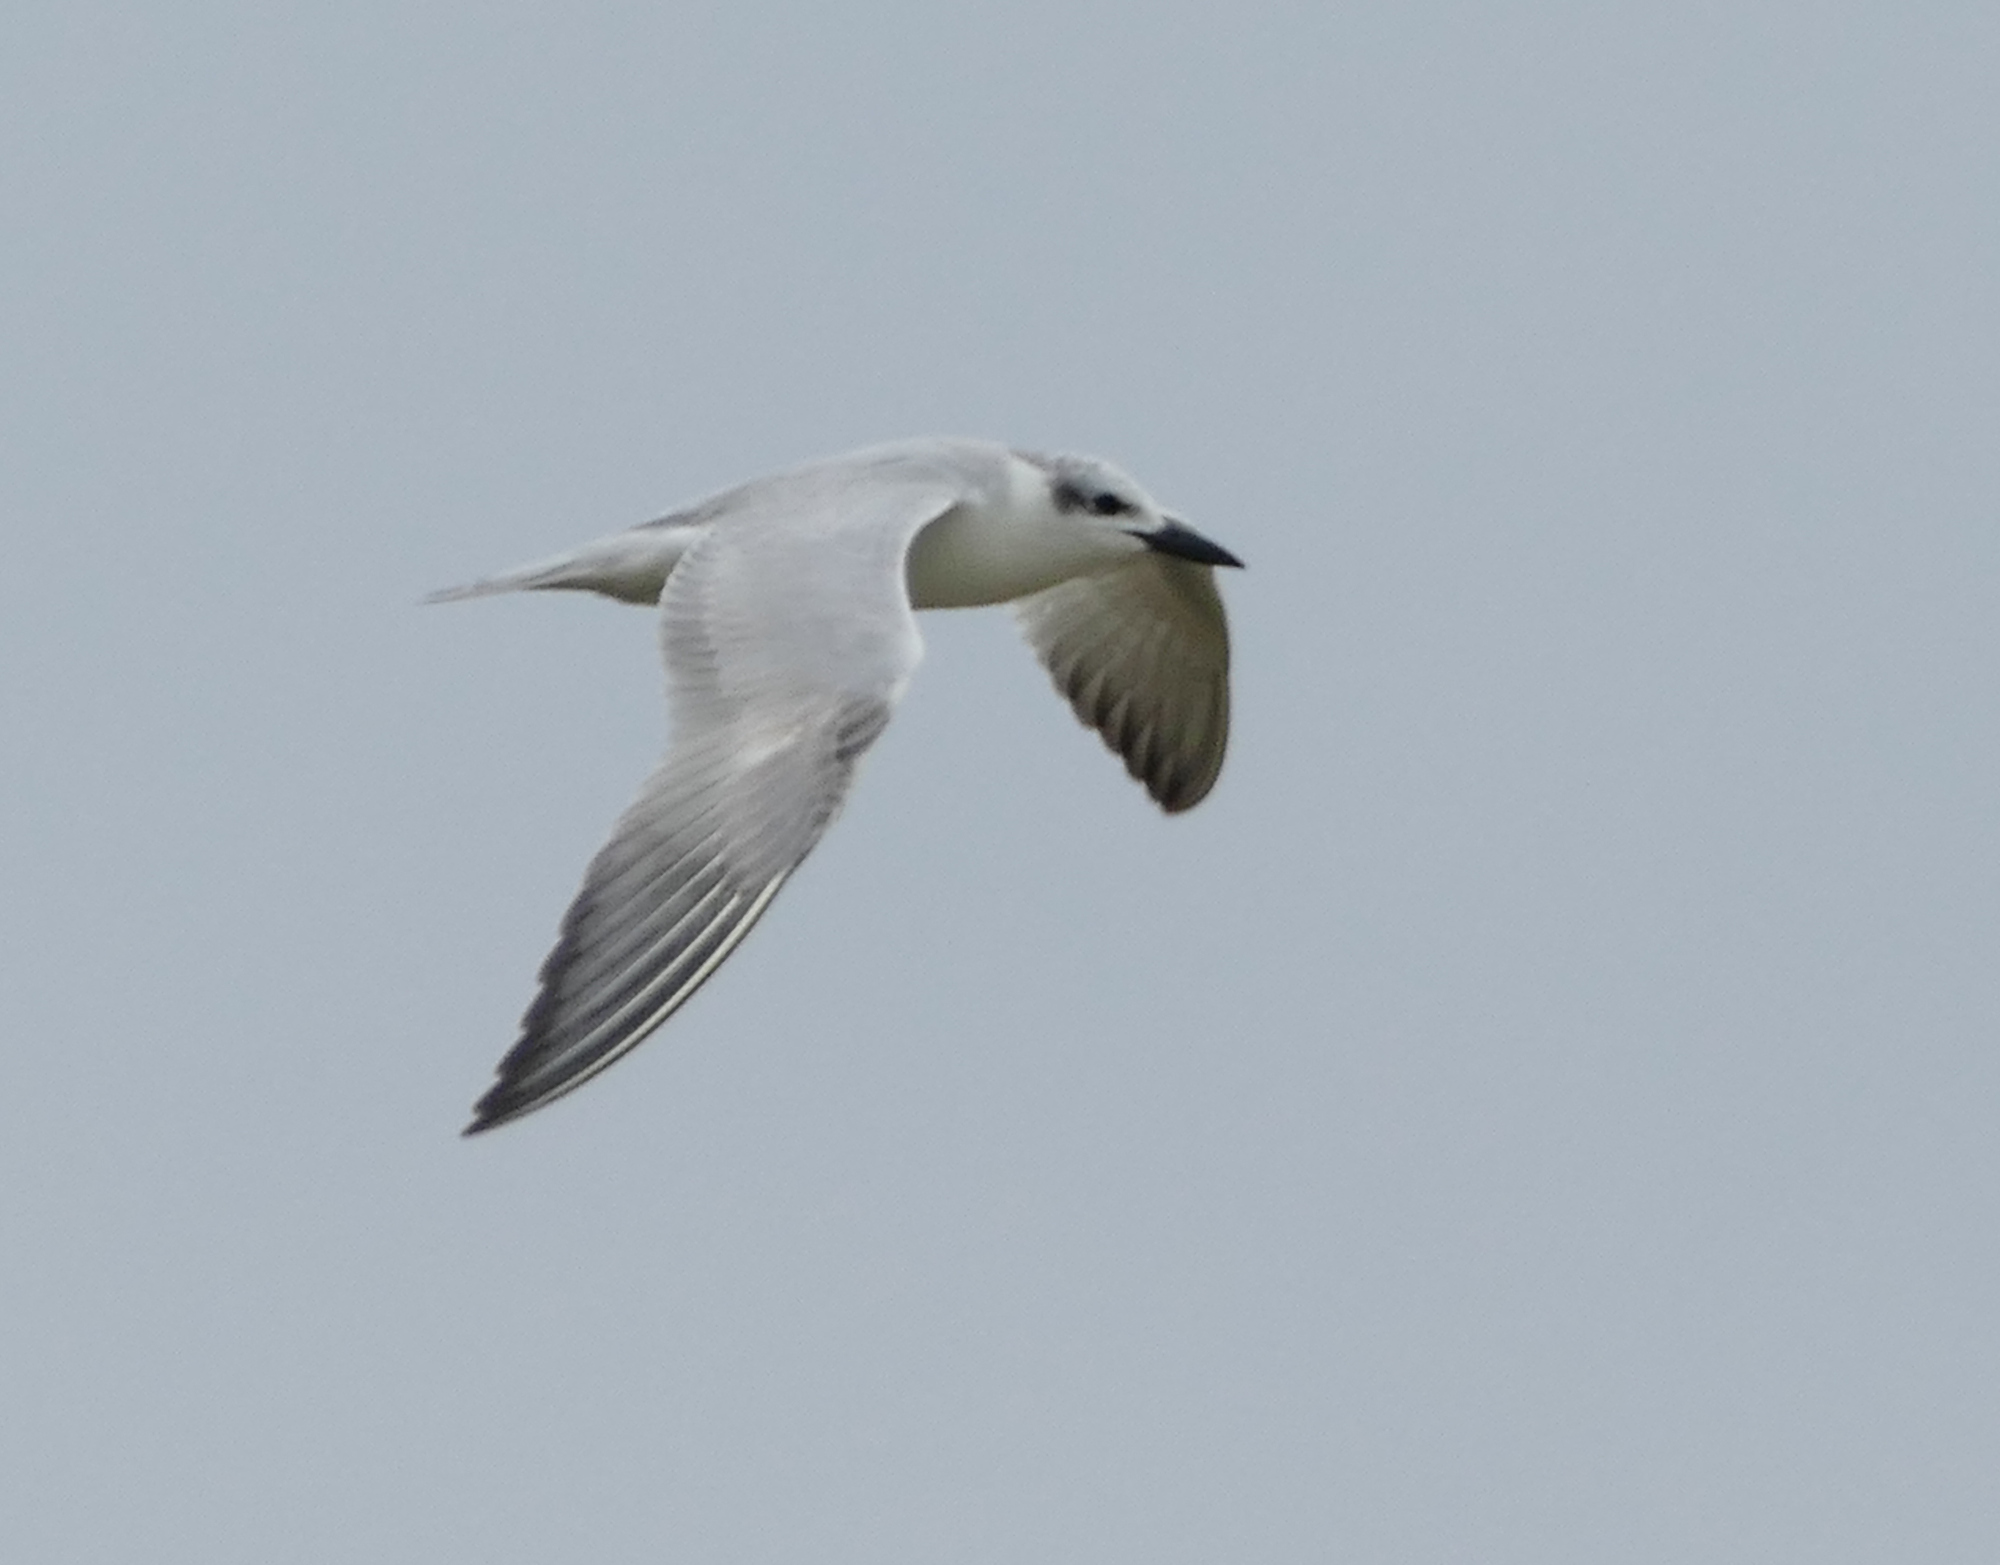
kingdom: Animalia
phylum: Chordata
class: Aves
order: Charadriiformes
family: Laridae
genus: Gelochelidon
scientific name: Gelochelidon nilotica
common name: Gull-billed tern
